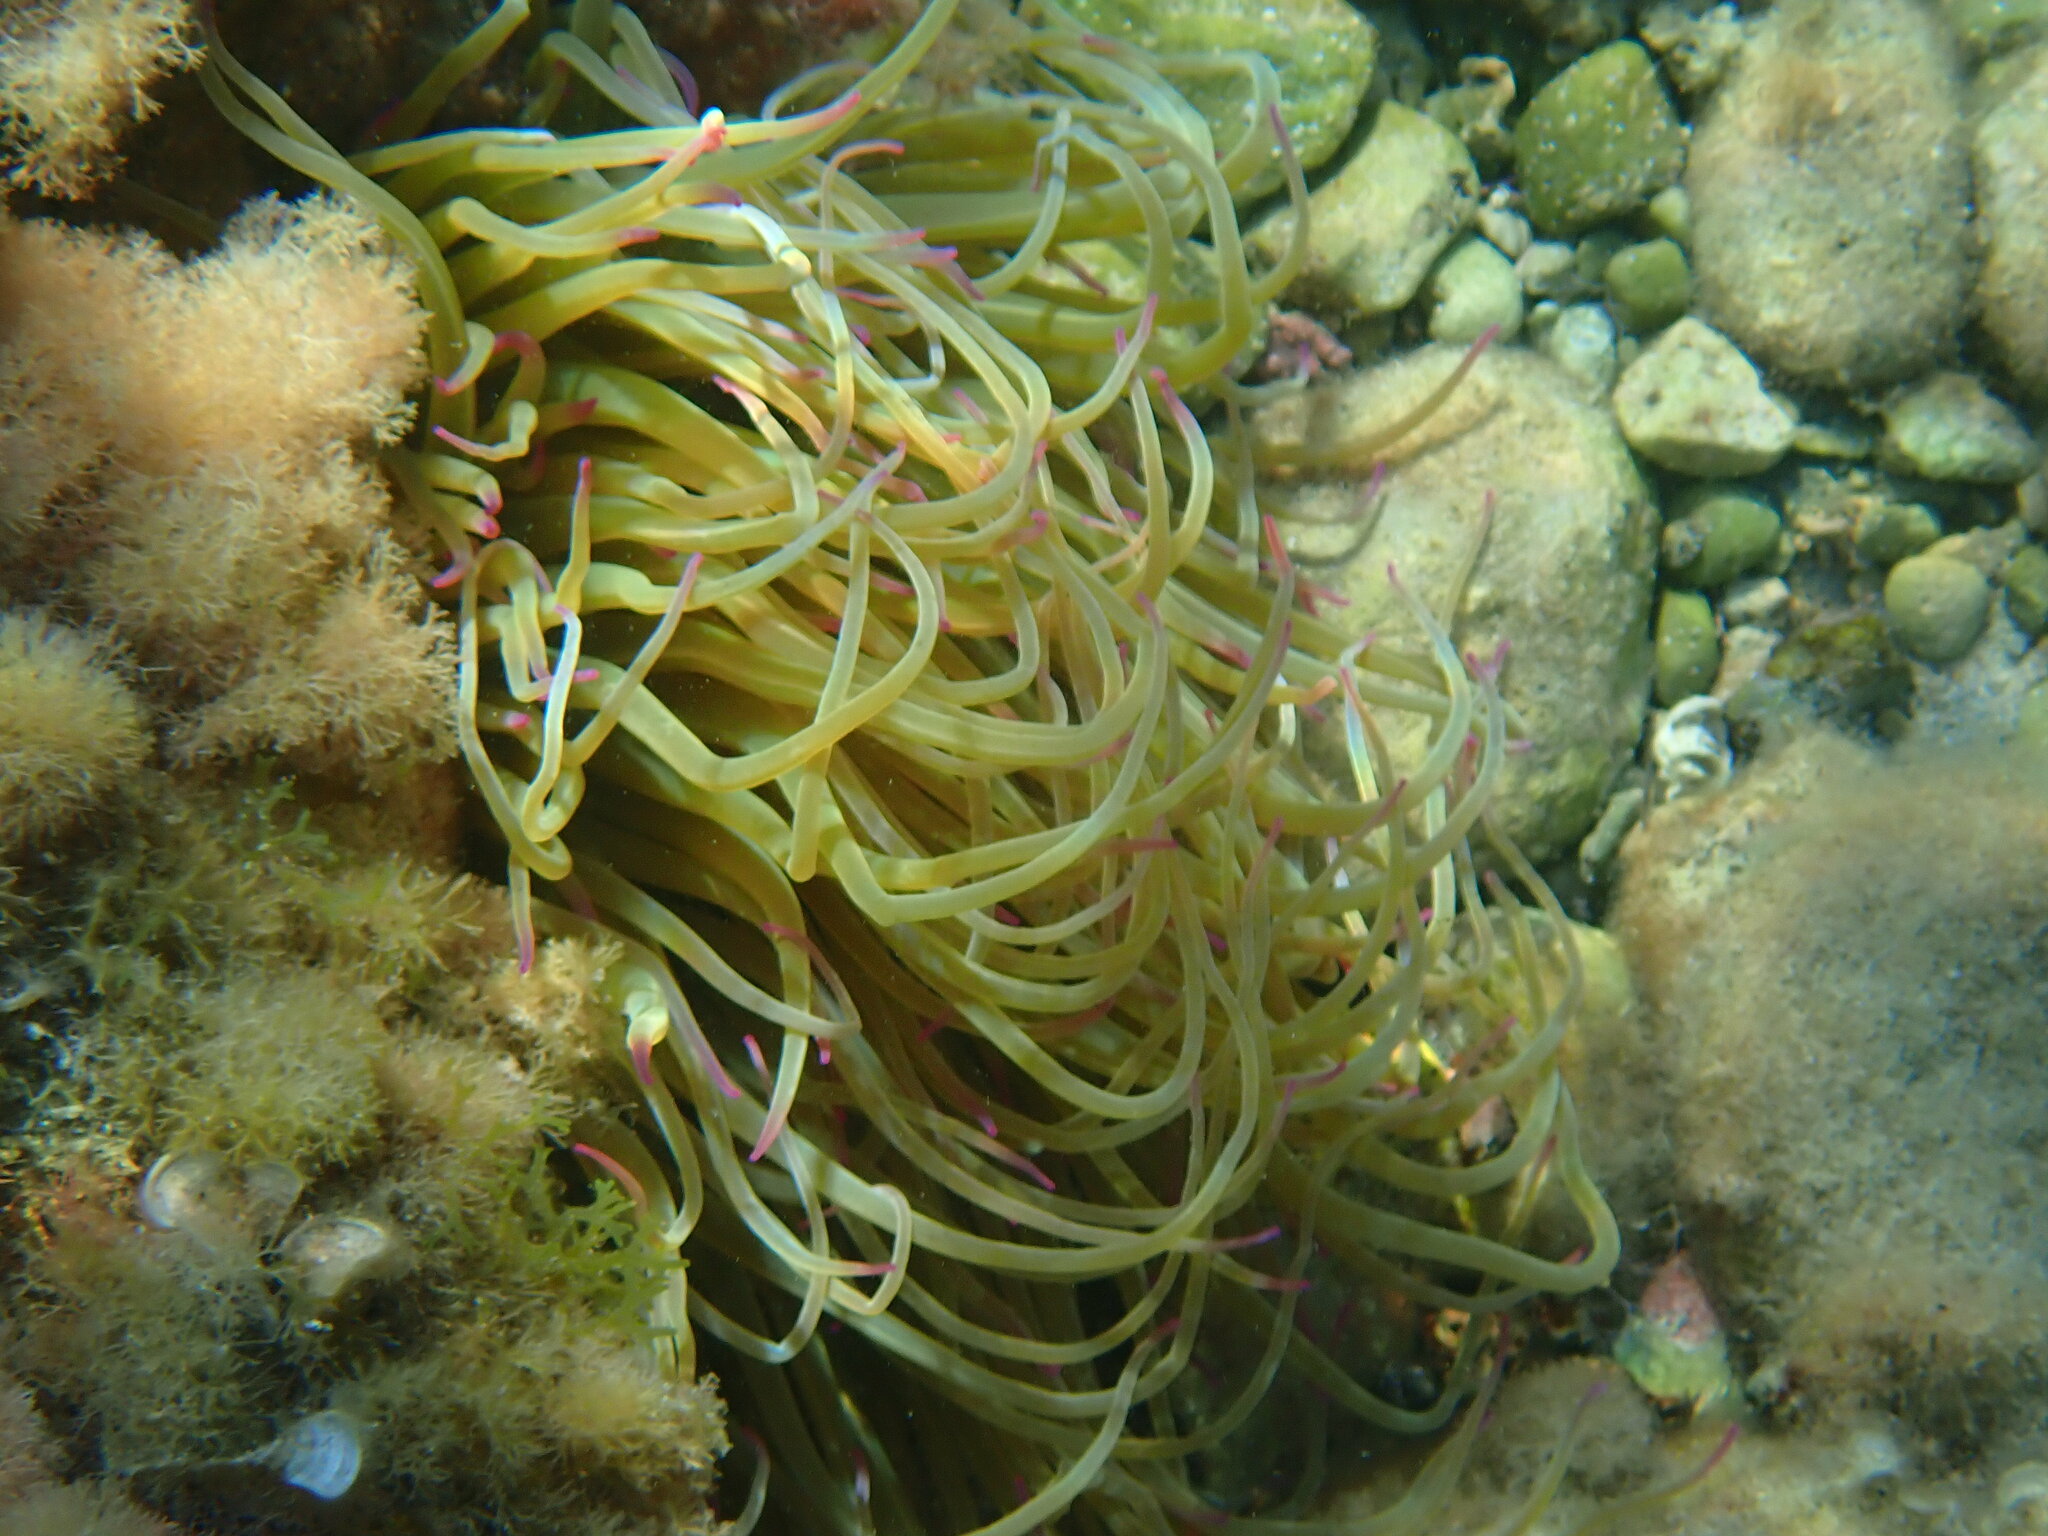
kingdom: Animalia
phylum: Cnidaria
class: Anthozoa
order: Actiniaria
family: Actiniidae
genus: Anemonia
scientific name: Anemonia viridis
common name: Snakelocks anemone
